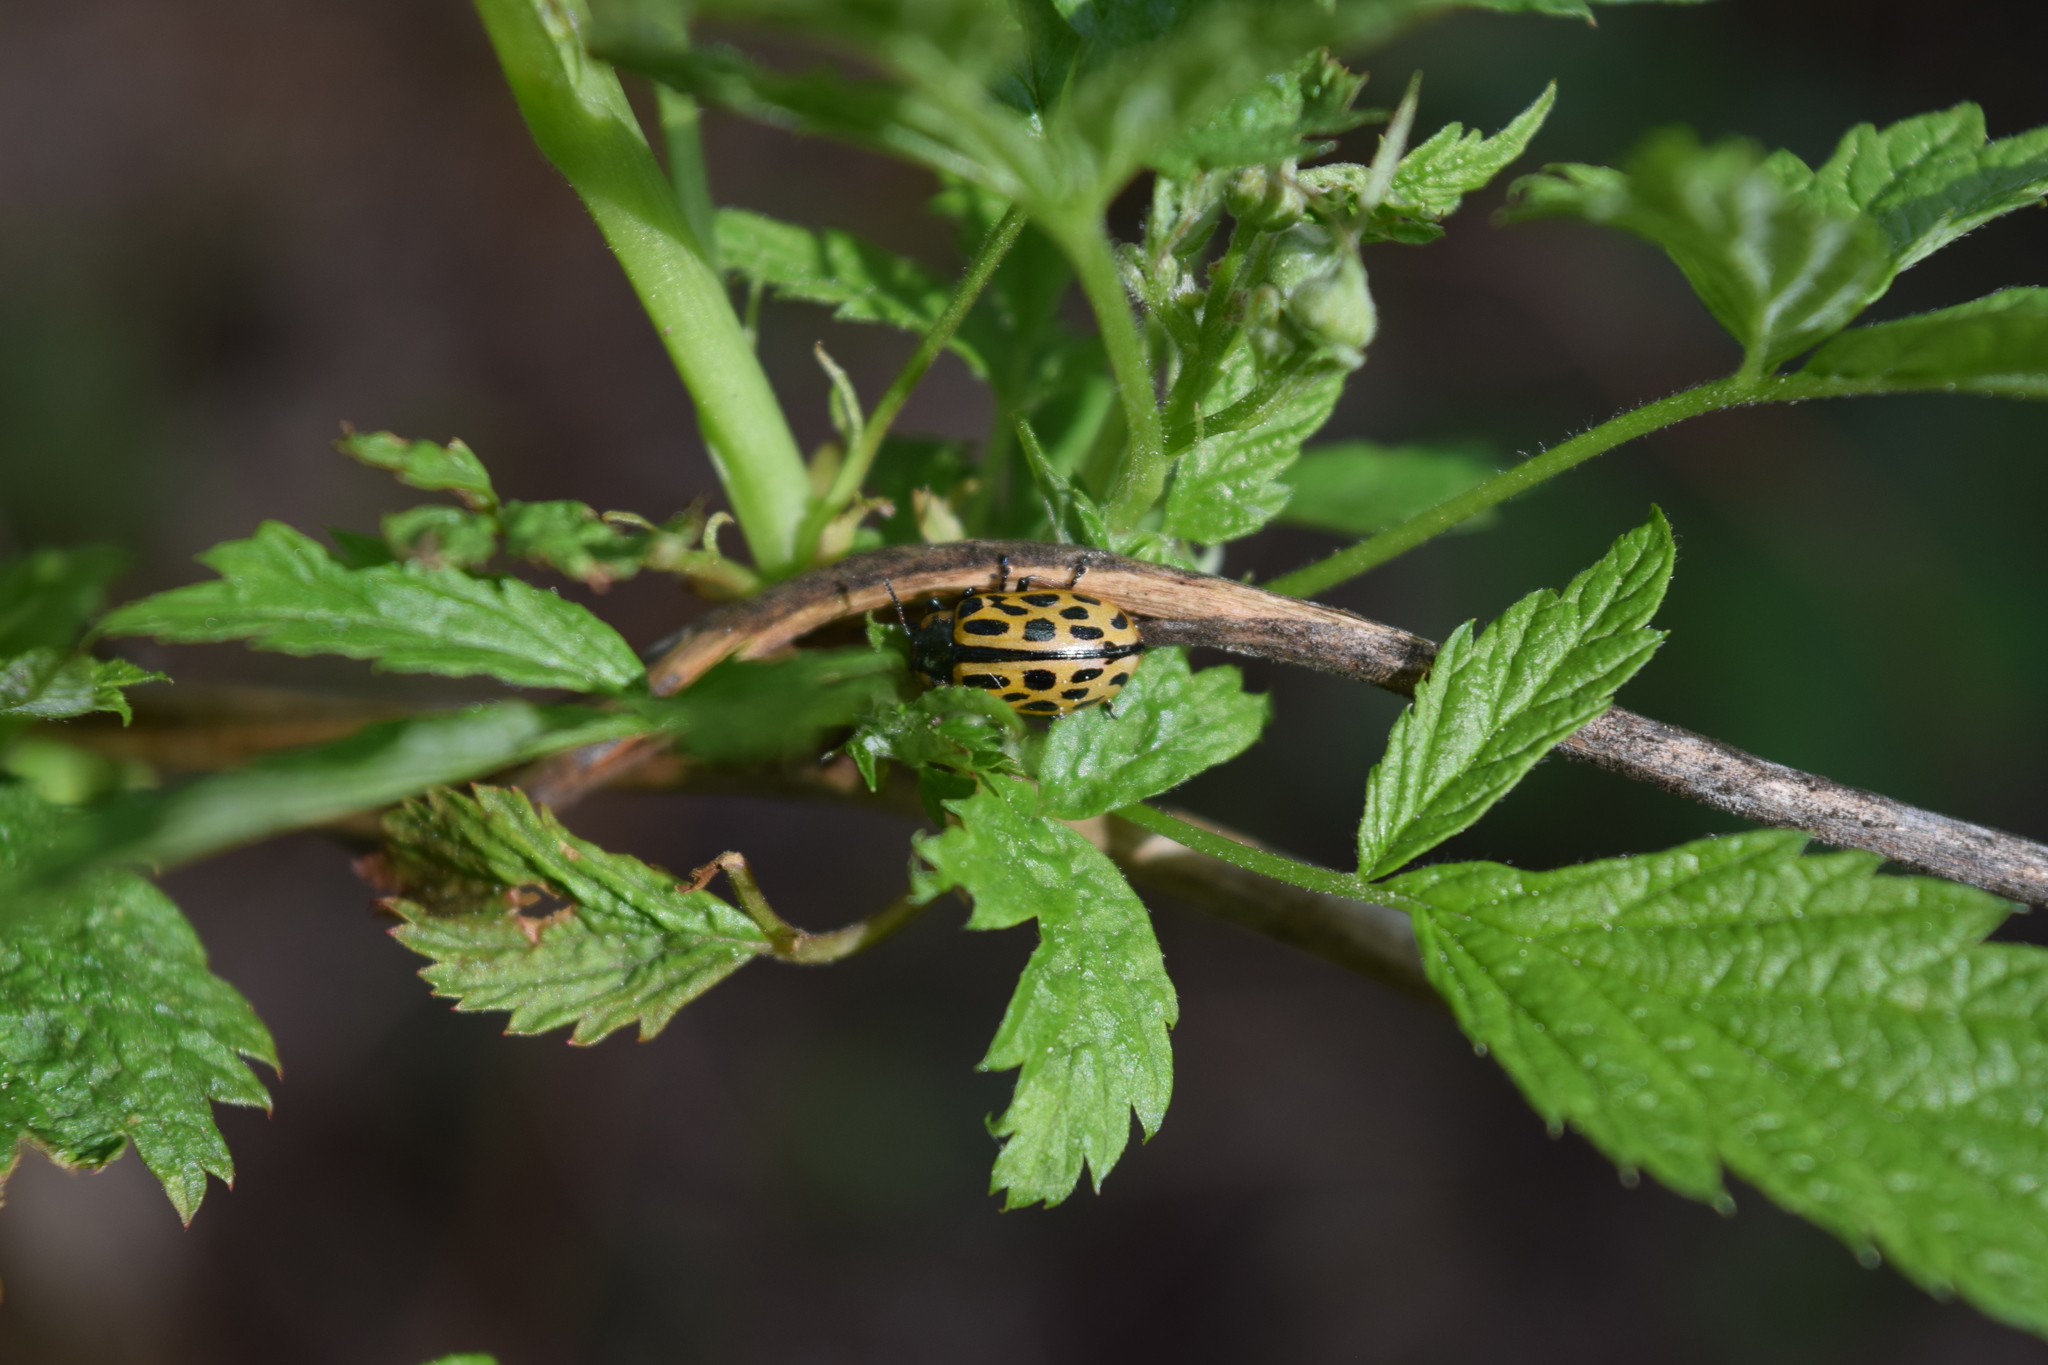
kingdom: Animalia
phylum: Arthropoda
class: Insecta
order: Coleoptera
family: Chrysomelidae
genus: Chrysomela
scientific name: Chrysomela vigintipunctata
